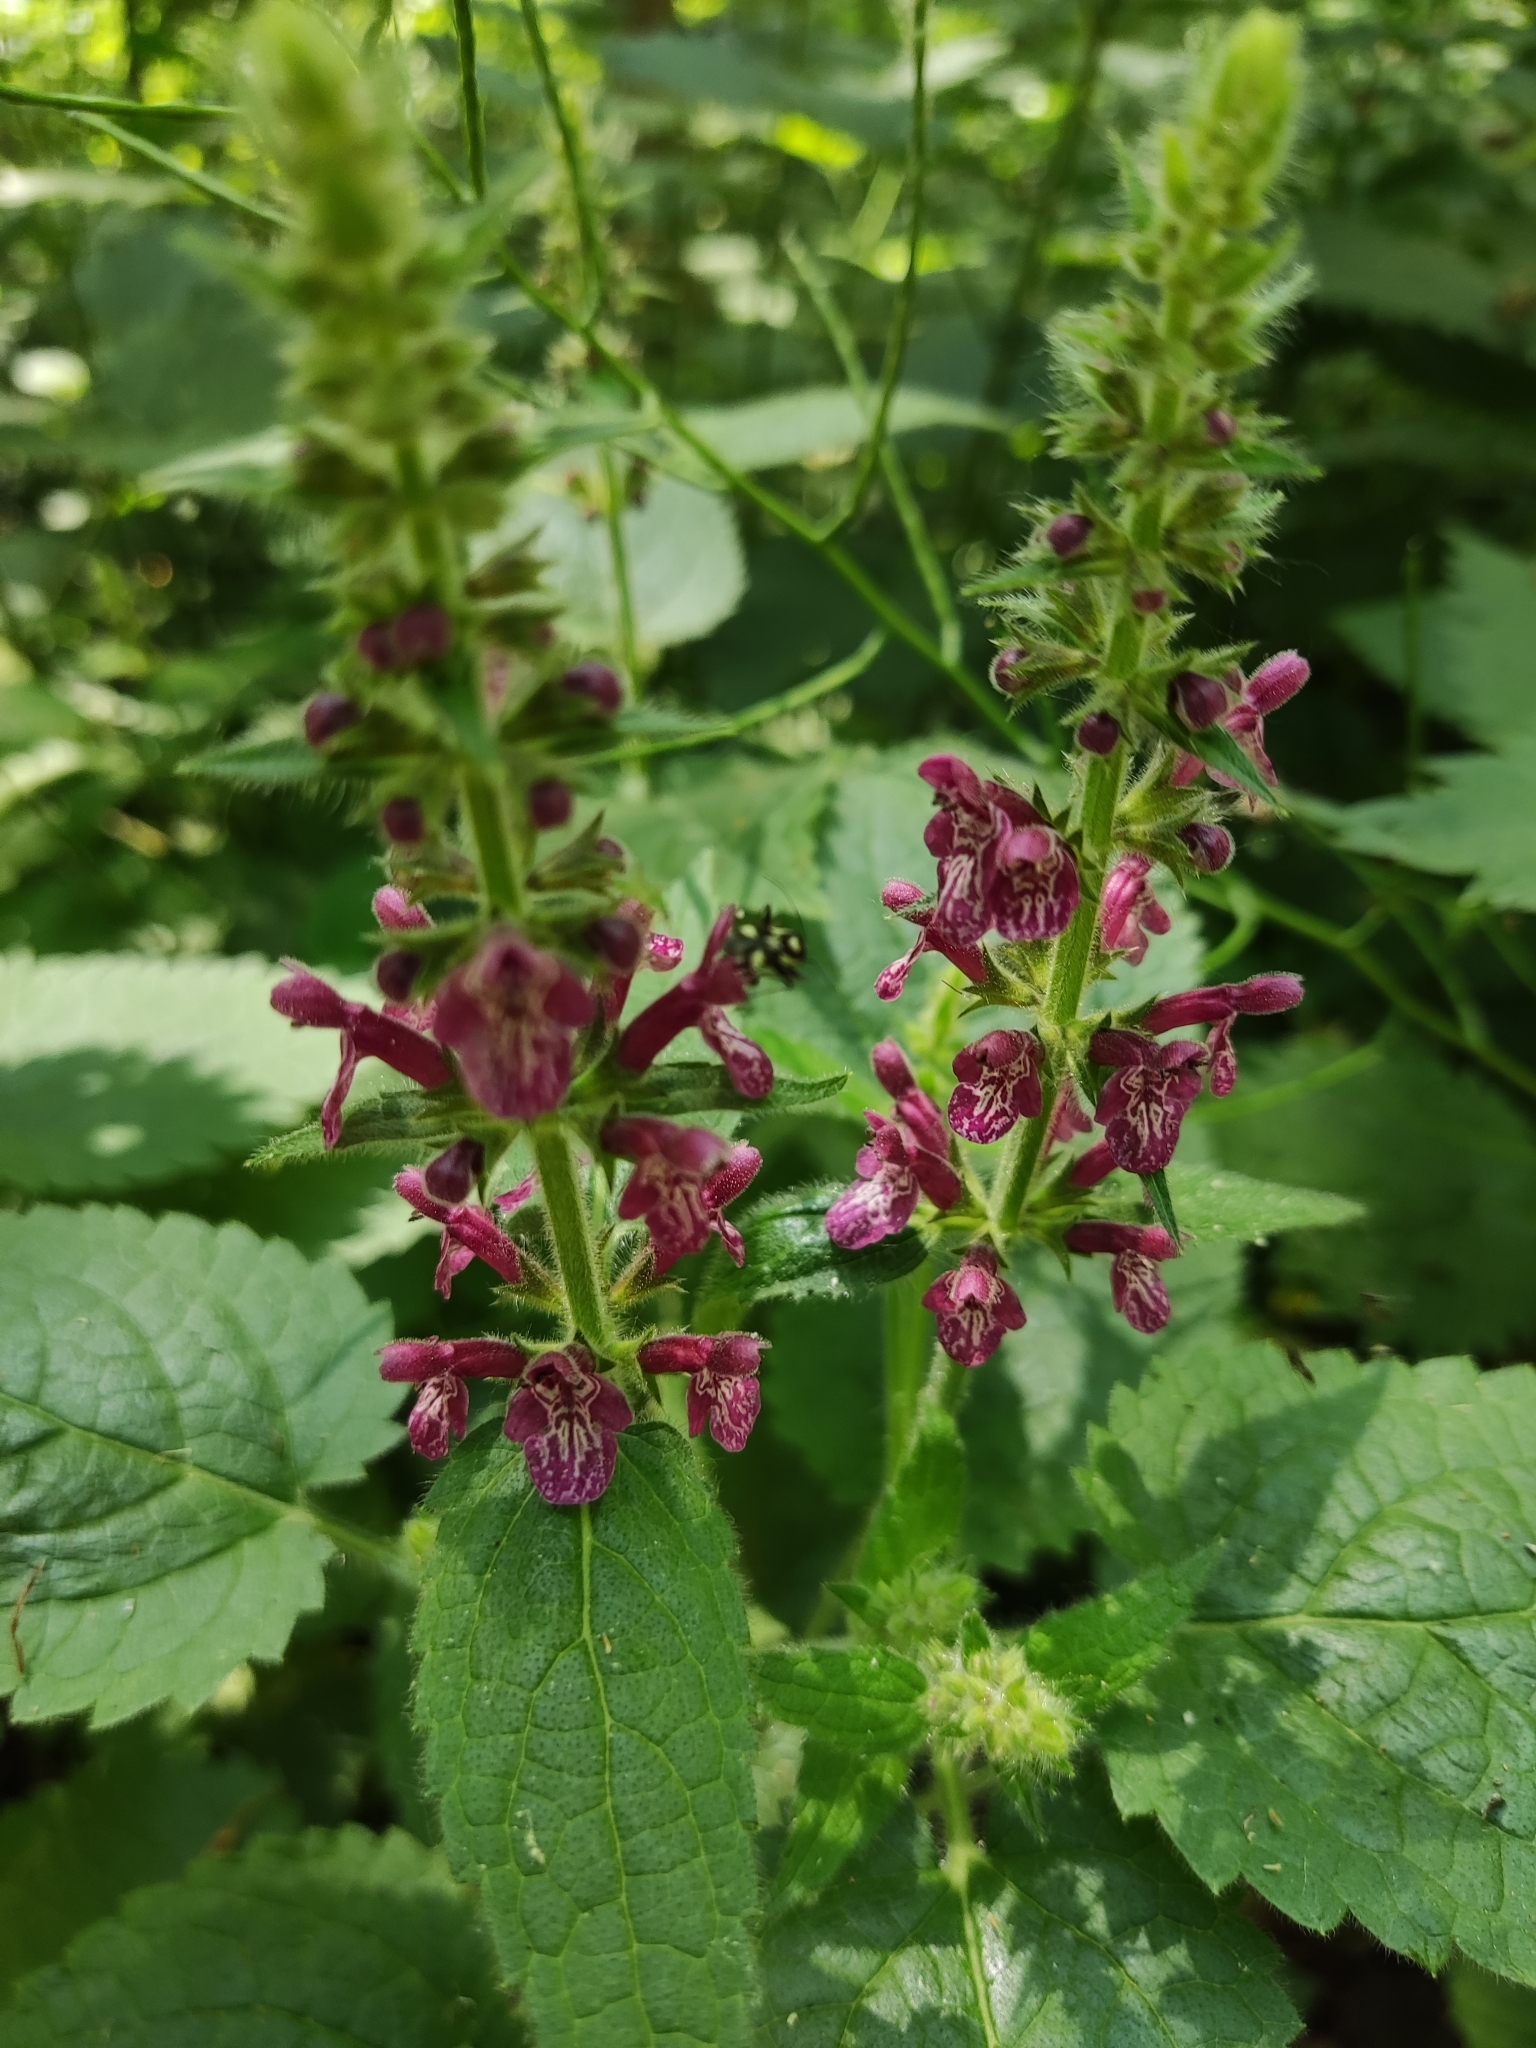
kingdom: Plantae
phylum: Tracheophyta
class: Magnoliopsida
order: Lamiales
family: Lamiaceae
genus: Stachys
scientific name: Stachys sylvatica
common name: Hedge woundwort
